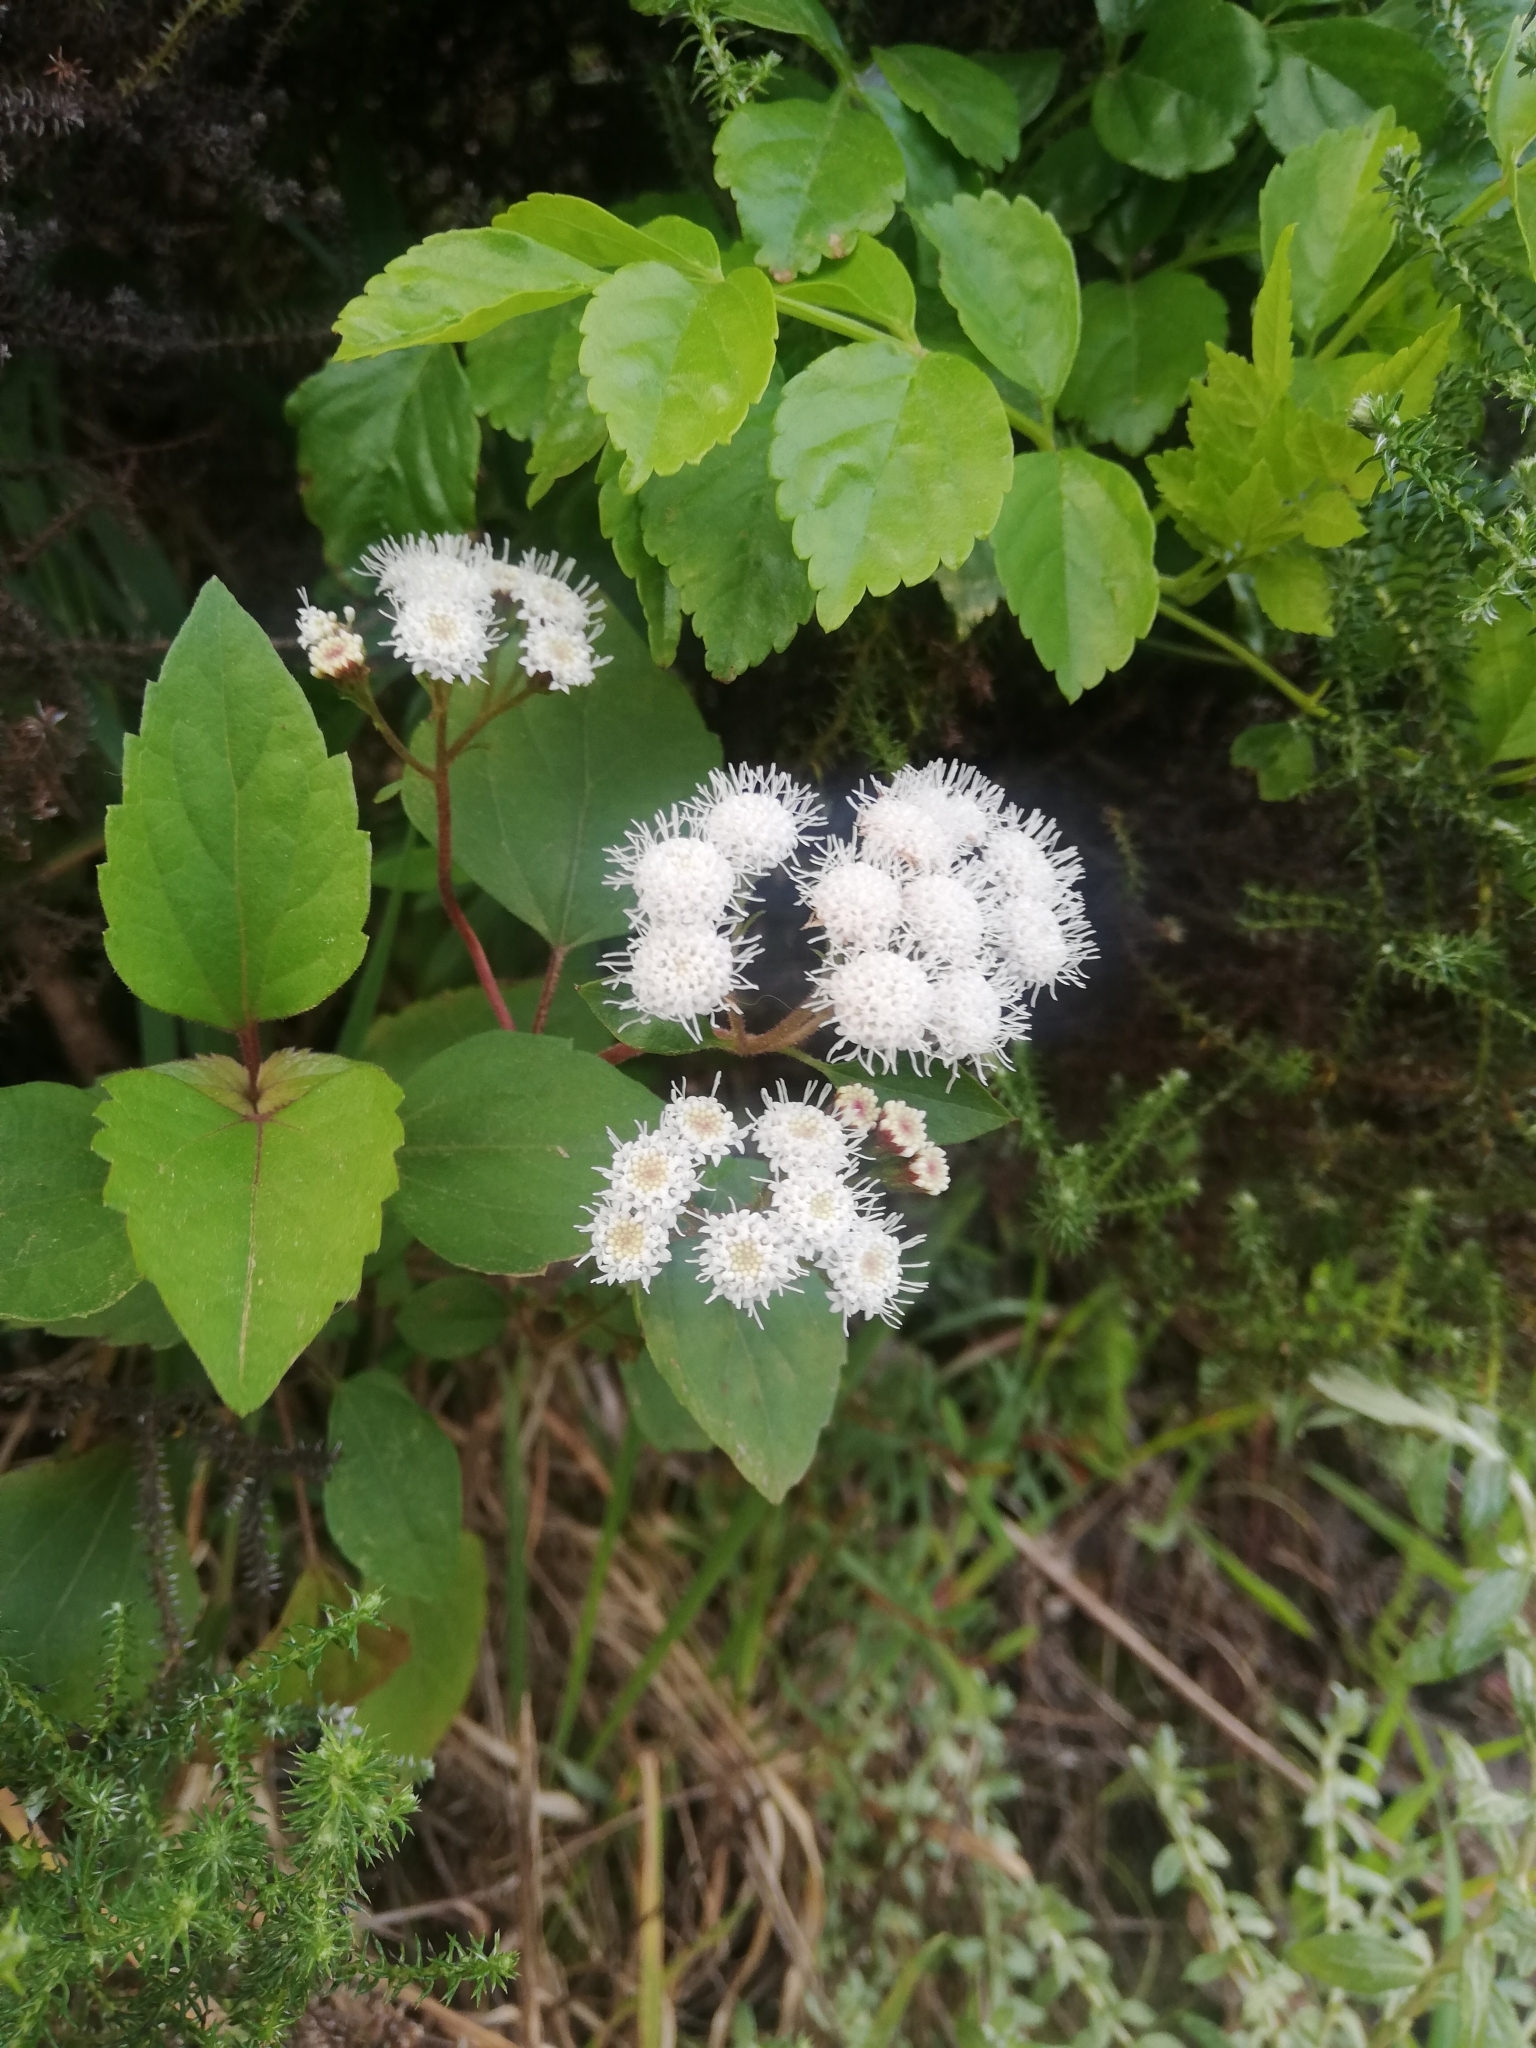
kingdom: Plantae
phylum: Tracheophyta
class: Magnoliopsida
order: Asterales
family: Asteraceae
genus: Ageratina
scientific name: Ageratina adenophora
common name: Sticky snakeroot
